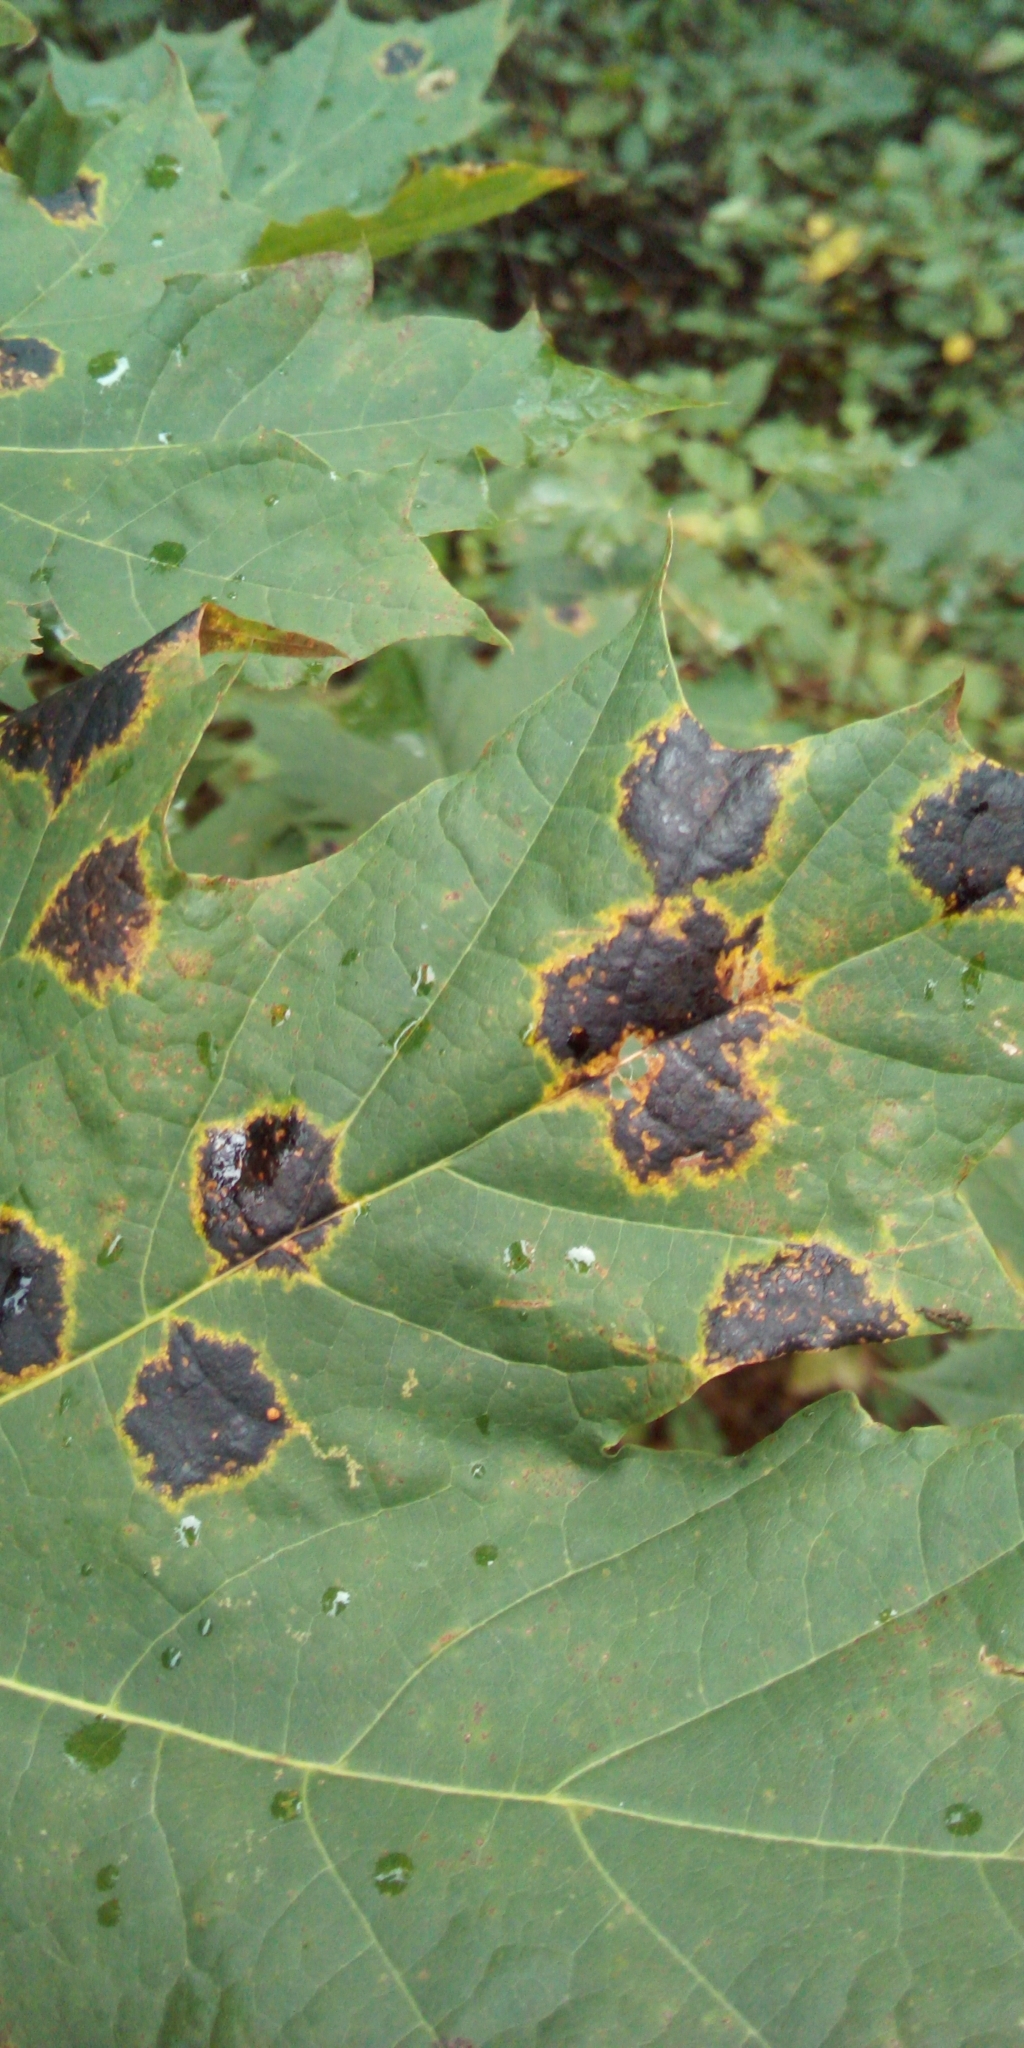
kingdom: Fungi
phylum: Ascomycota
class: Leotiomycetes
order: Rhytismatales
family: Rhytismataceae
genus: Rhytisma
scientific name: Rhytisma acerinum
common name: European tar spot
